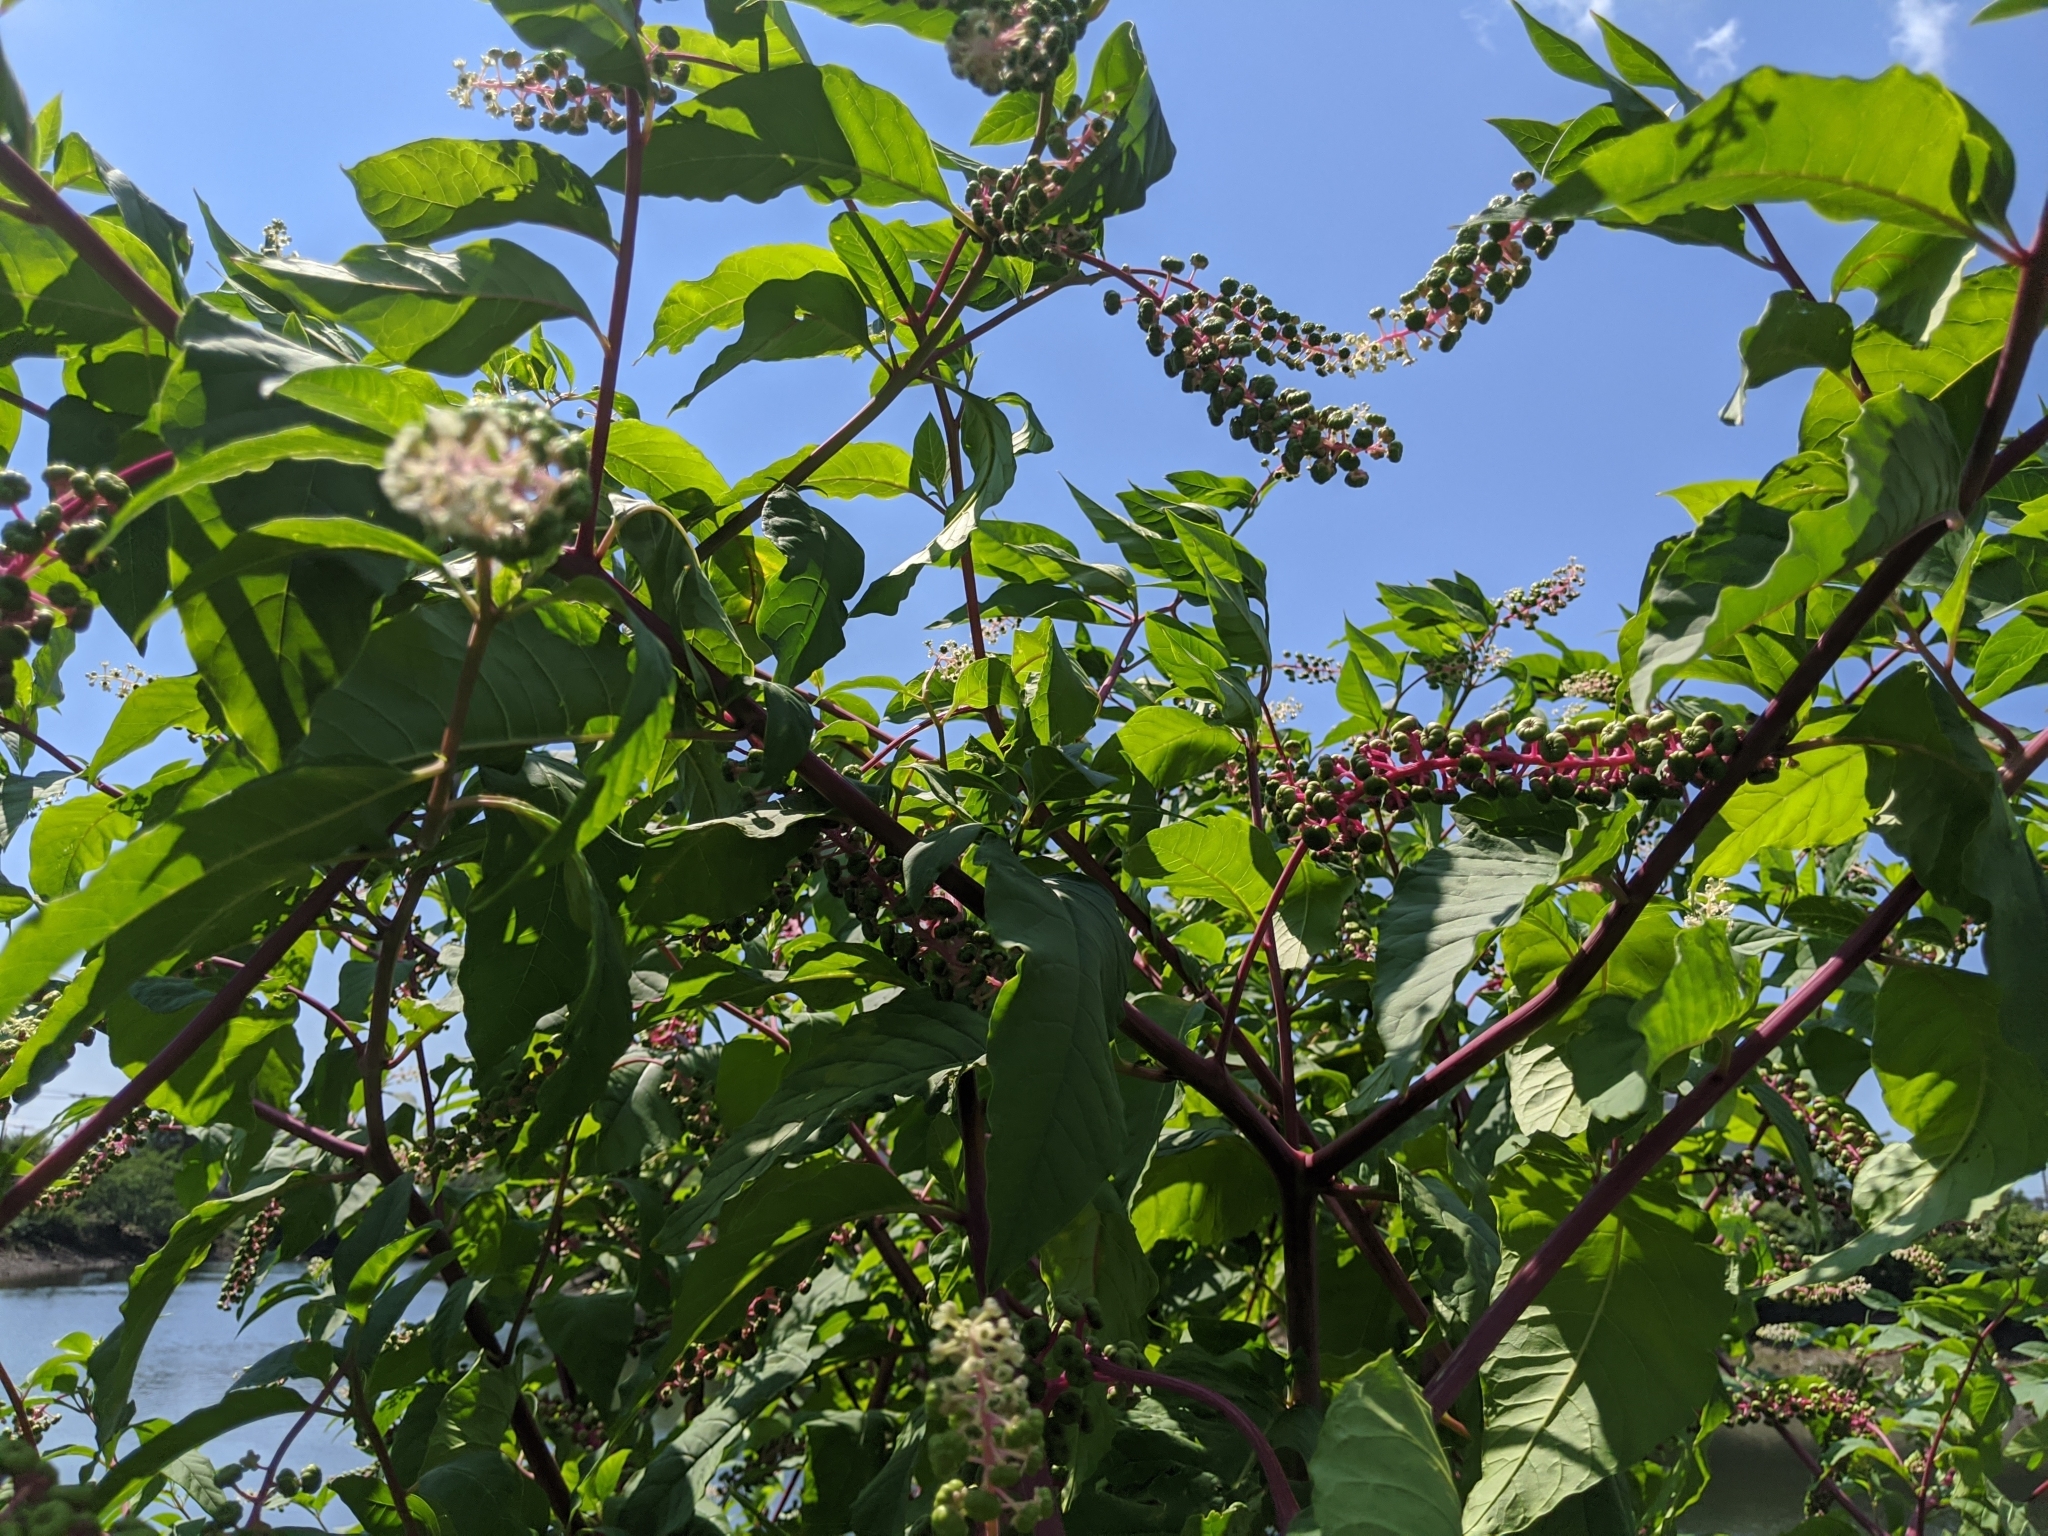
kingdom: Plantae
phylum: Tracheophyta
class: Magnoliopsida
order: Caryophyllales
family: Phytolaccaceae
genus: Phytolacca
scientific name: Phytolacca americana
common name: American pokeweed
